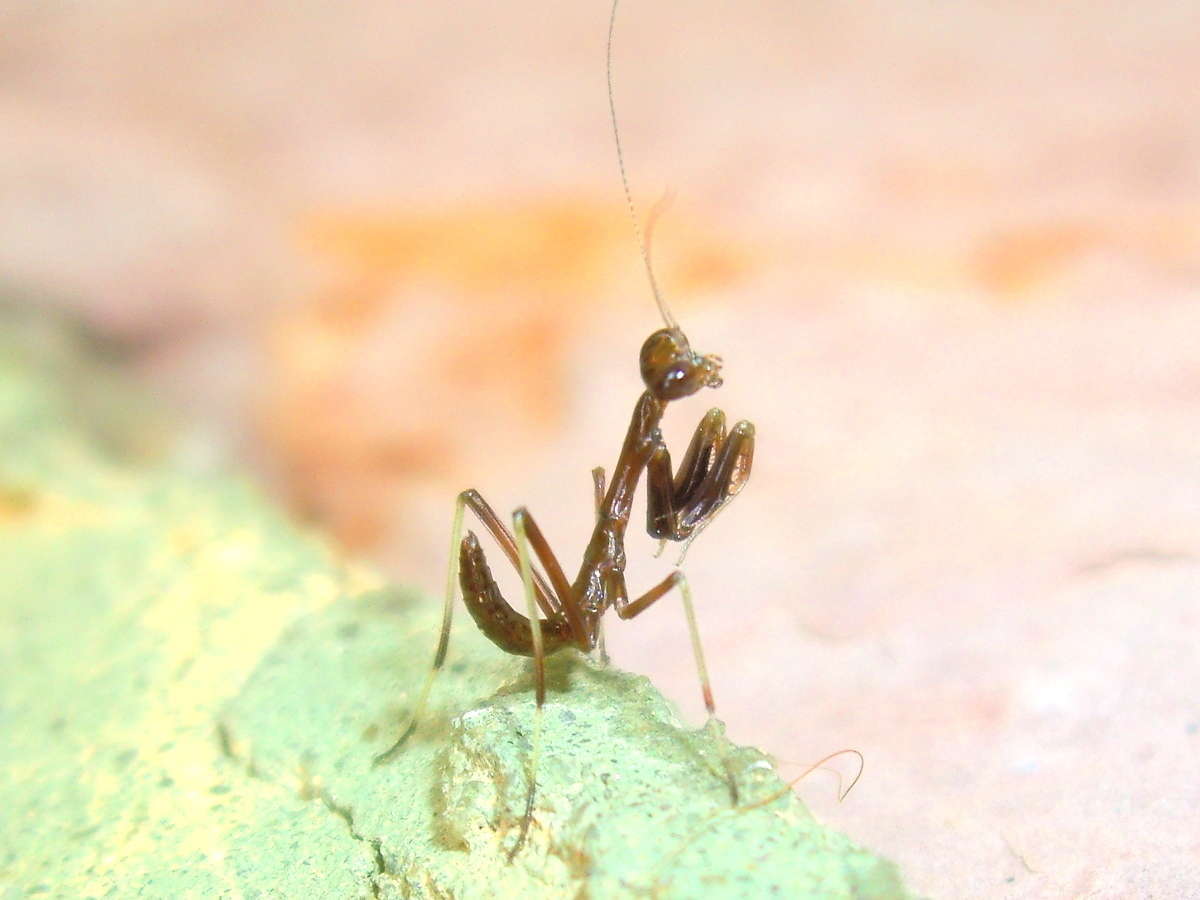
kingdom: Animalia
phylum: Arthropoda
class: Insecta
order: Mantodea
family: Mantidae
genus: Pseudomantis
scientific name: Pseudomantis albofimbriata
